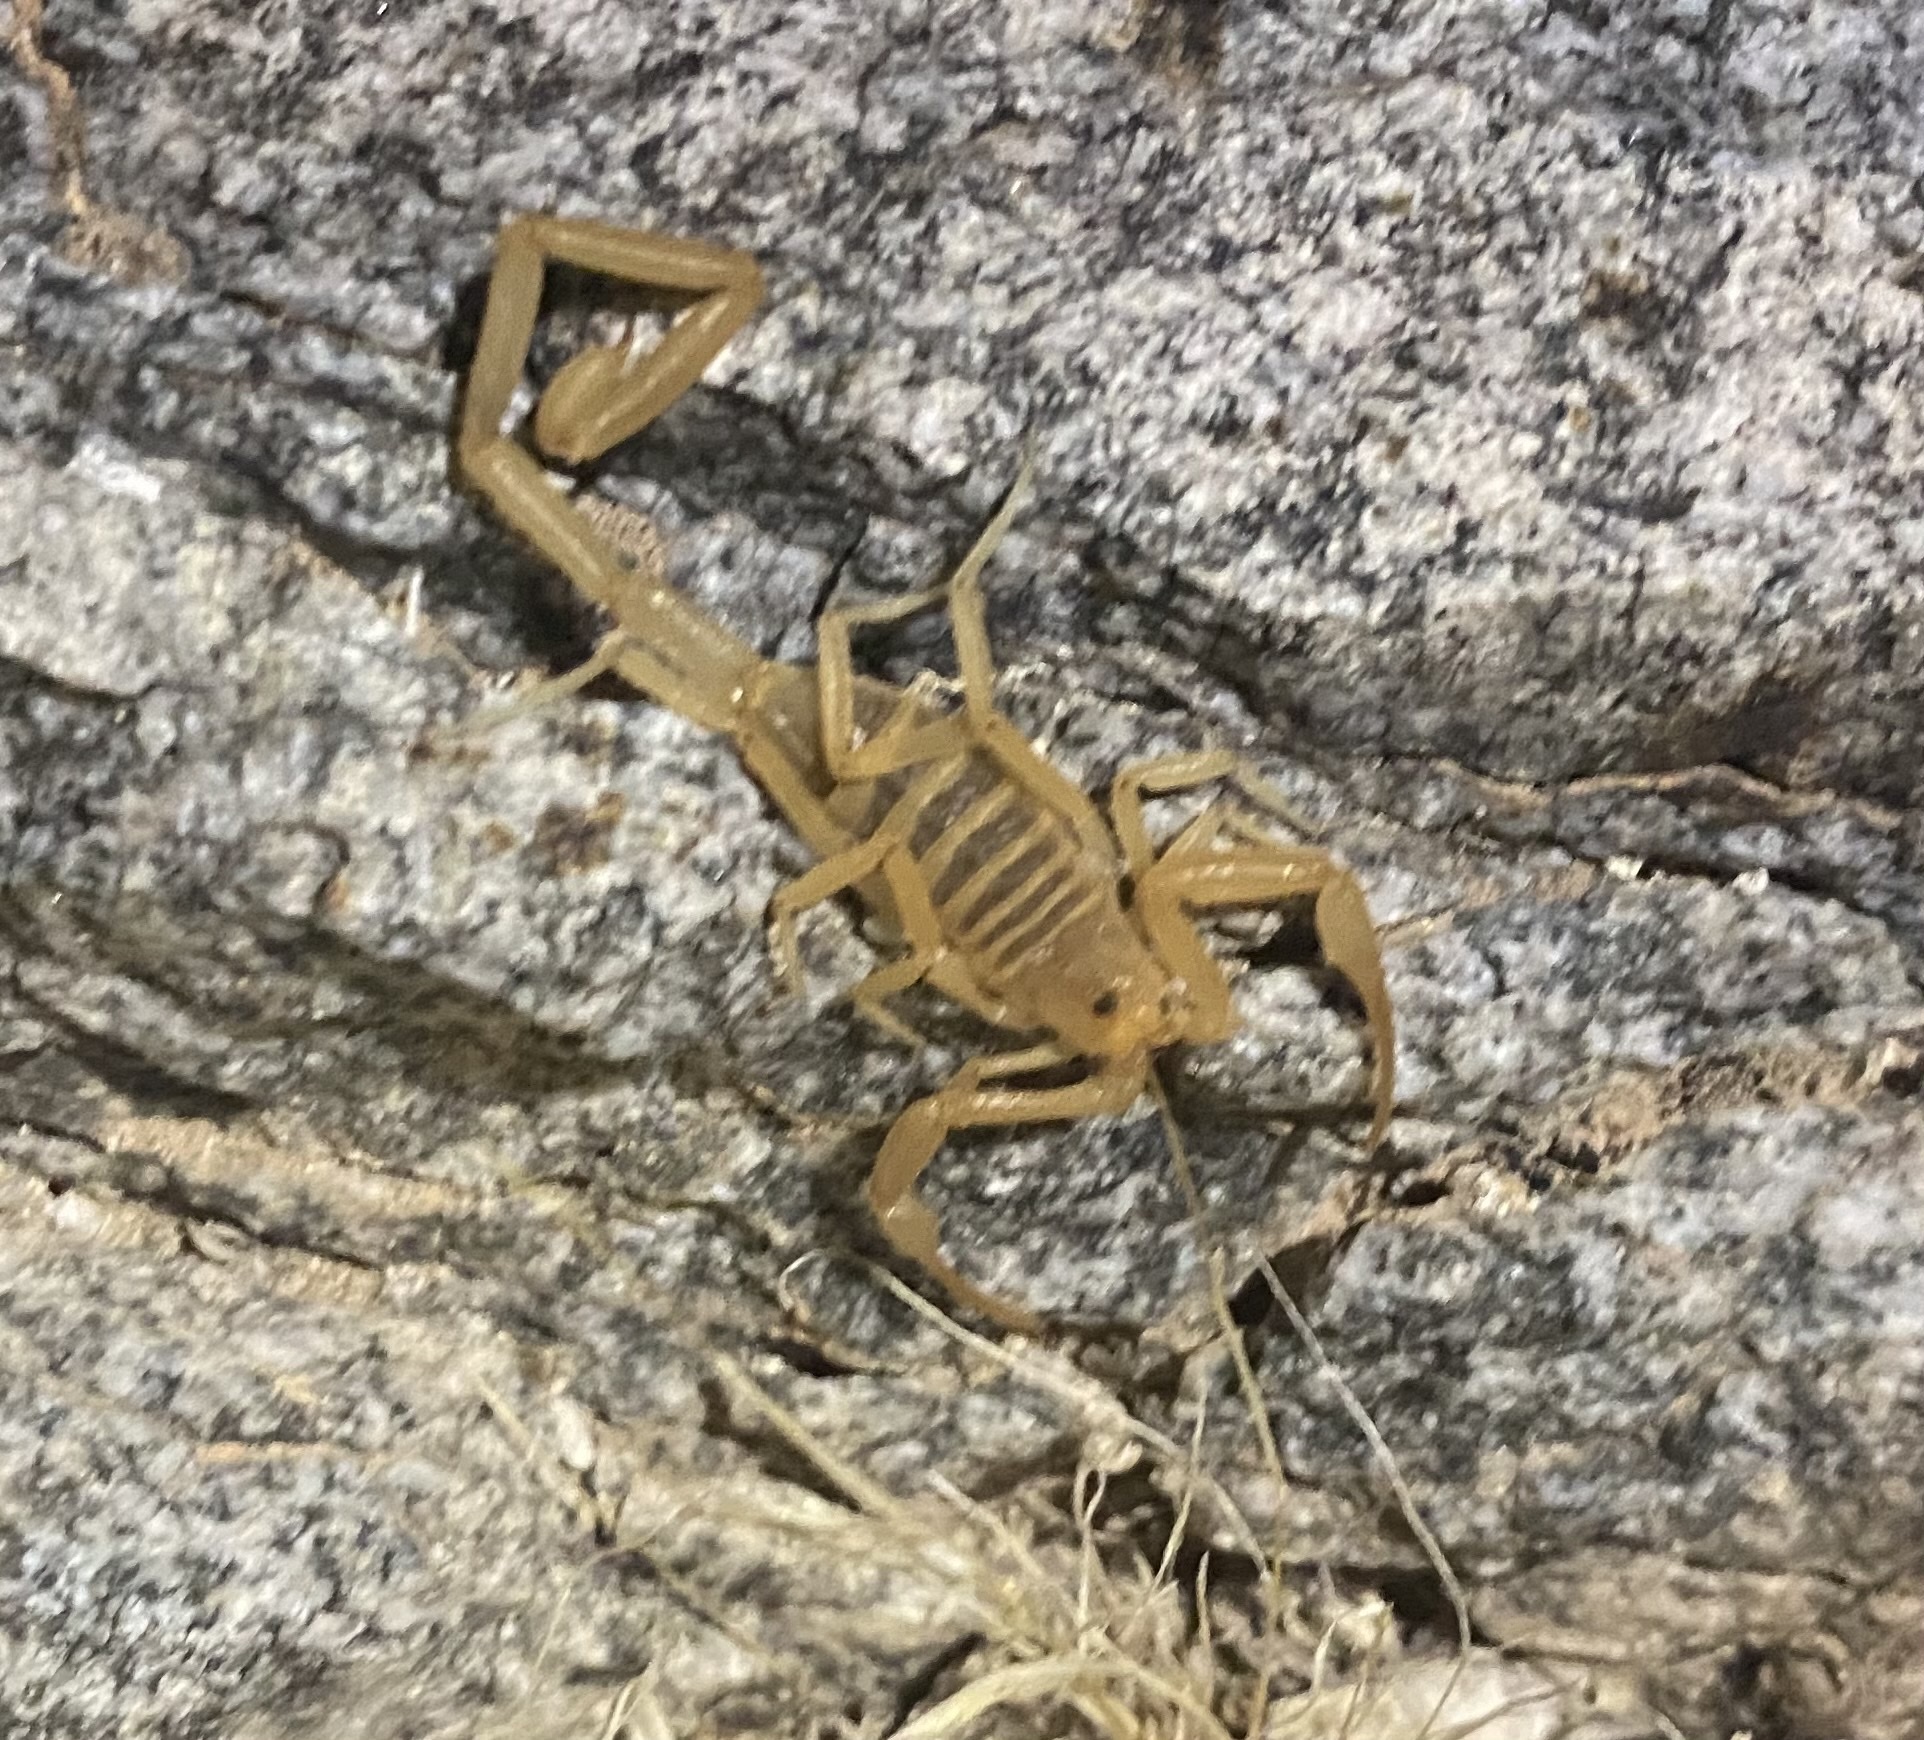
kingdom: Animalia
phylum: Arthropoda
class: Arachnida
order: Scorpiones
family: Buthidae
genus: Centruroides
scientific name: Centruroides sculpturatus
